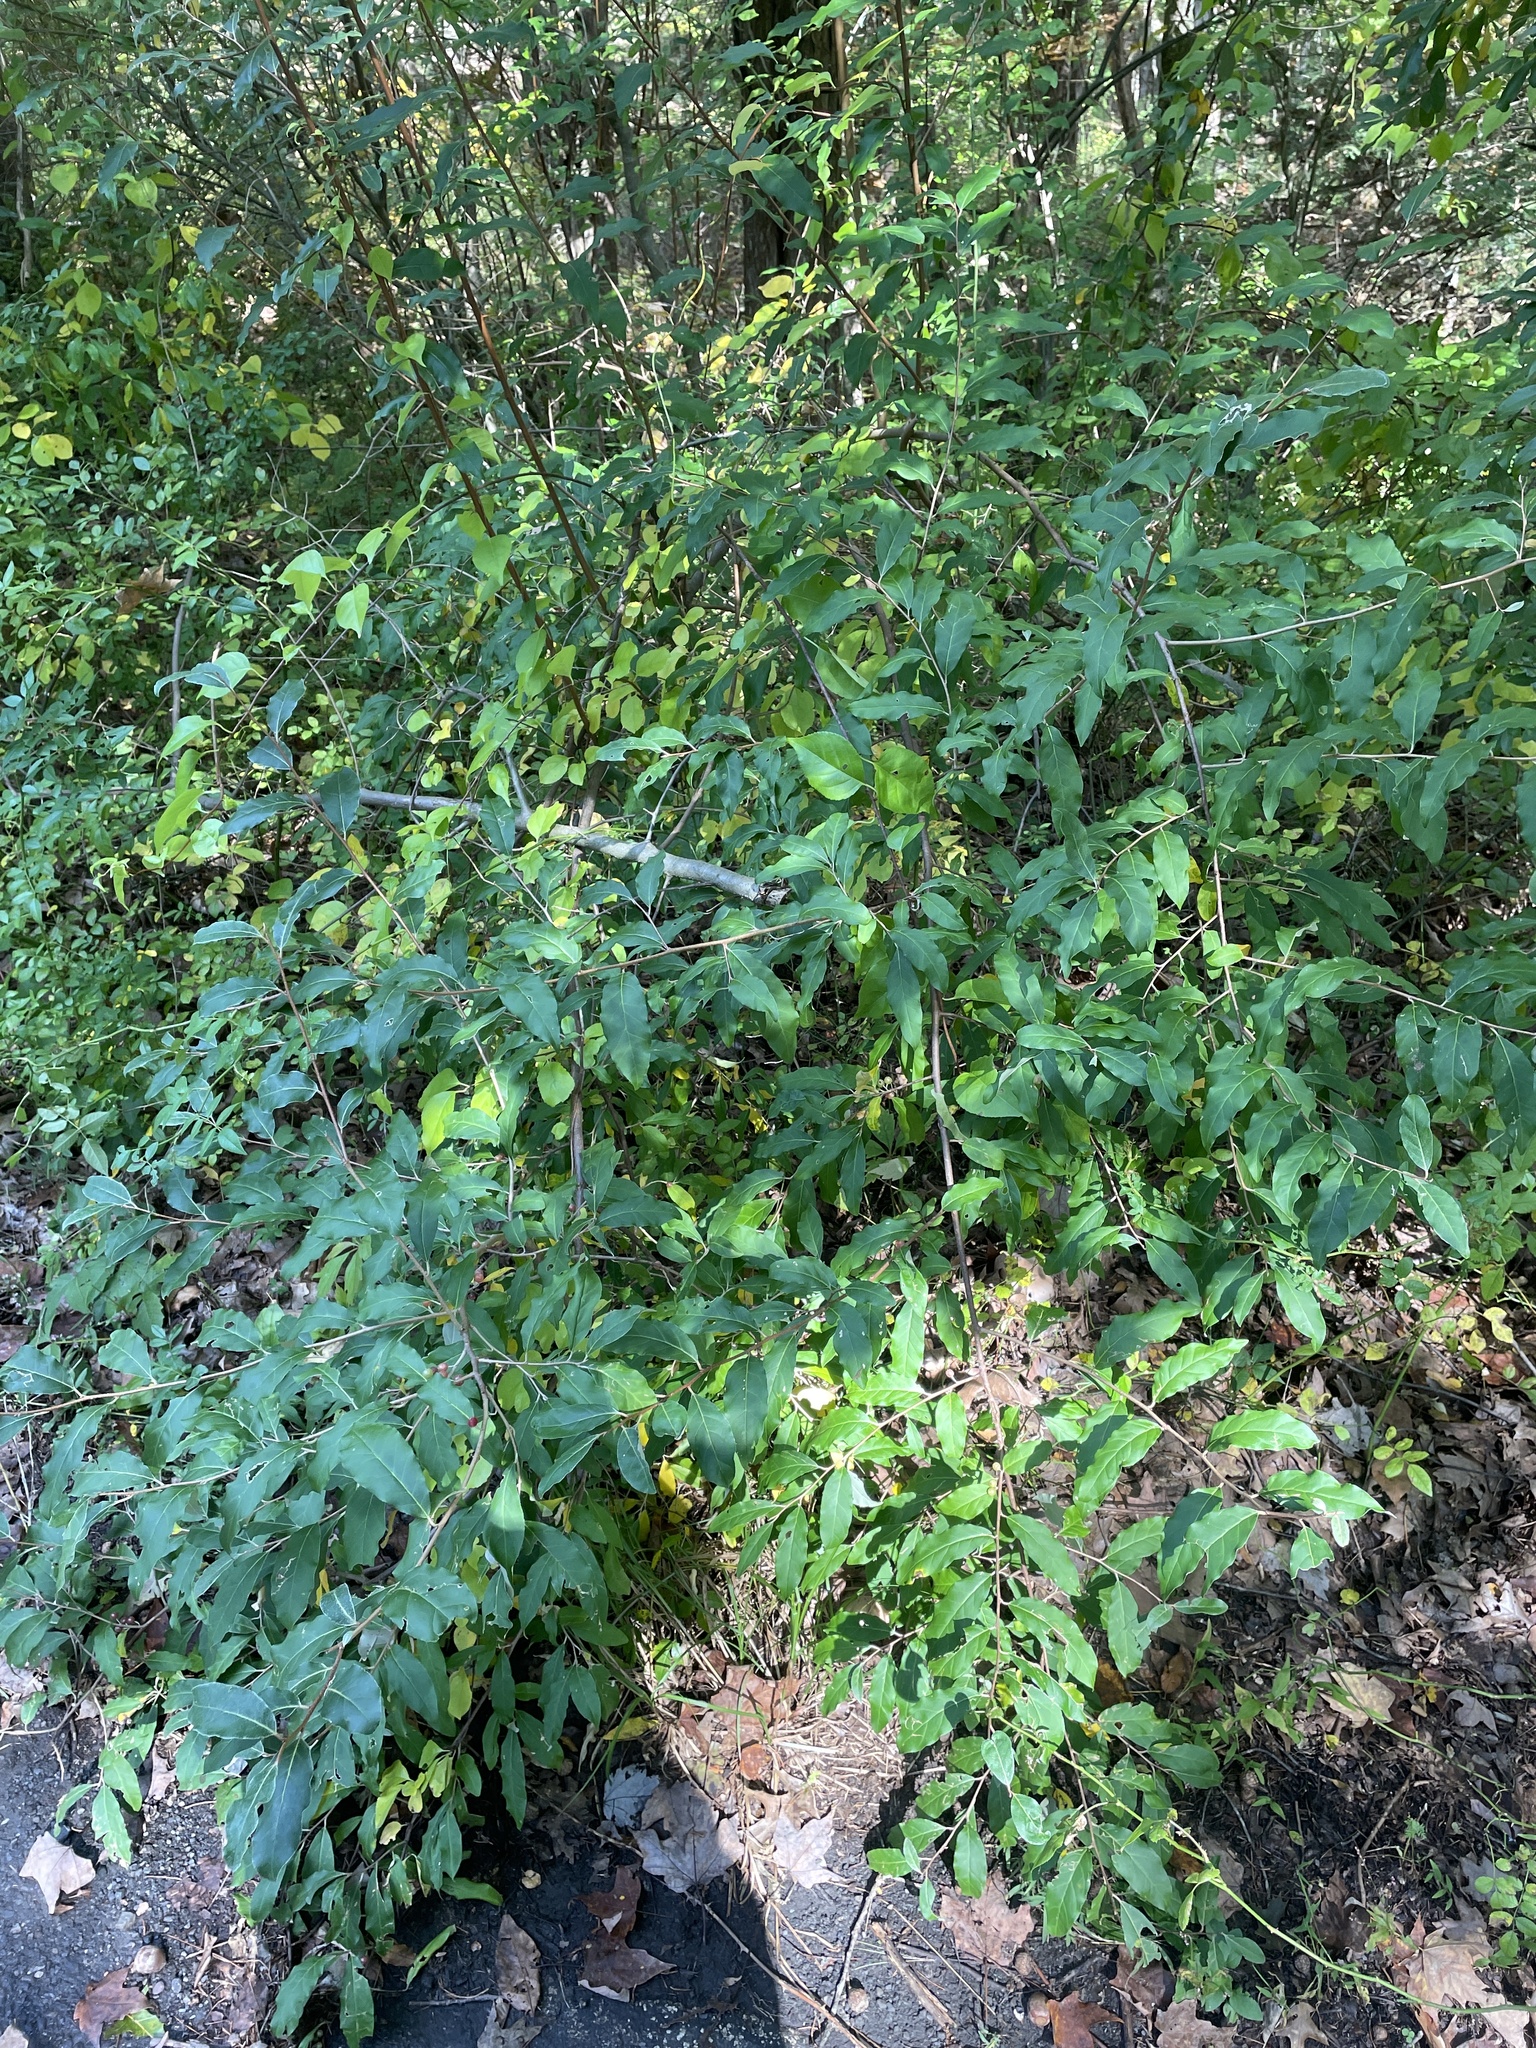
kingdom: Plantae
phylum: Tracheophyta
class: Magnoliopsida
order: Rosales
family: Elaeagnaceae
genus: Elaeagnus
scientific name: Elaeagnus umbellata
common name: Autumn olive
